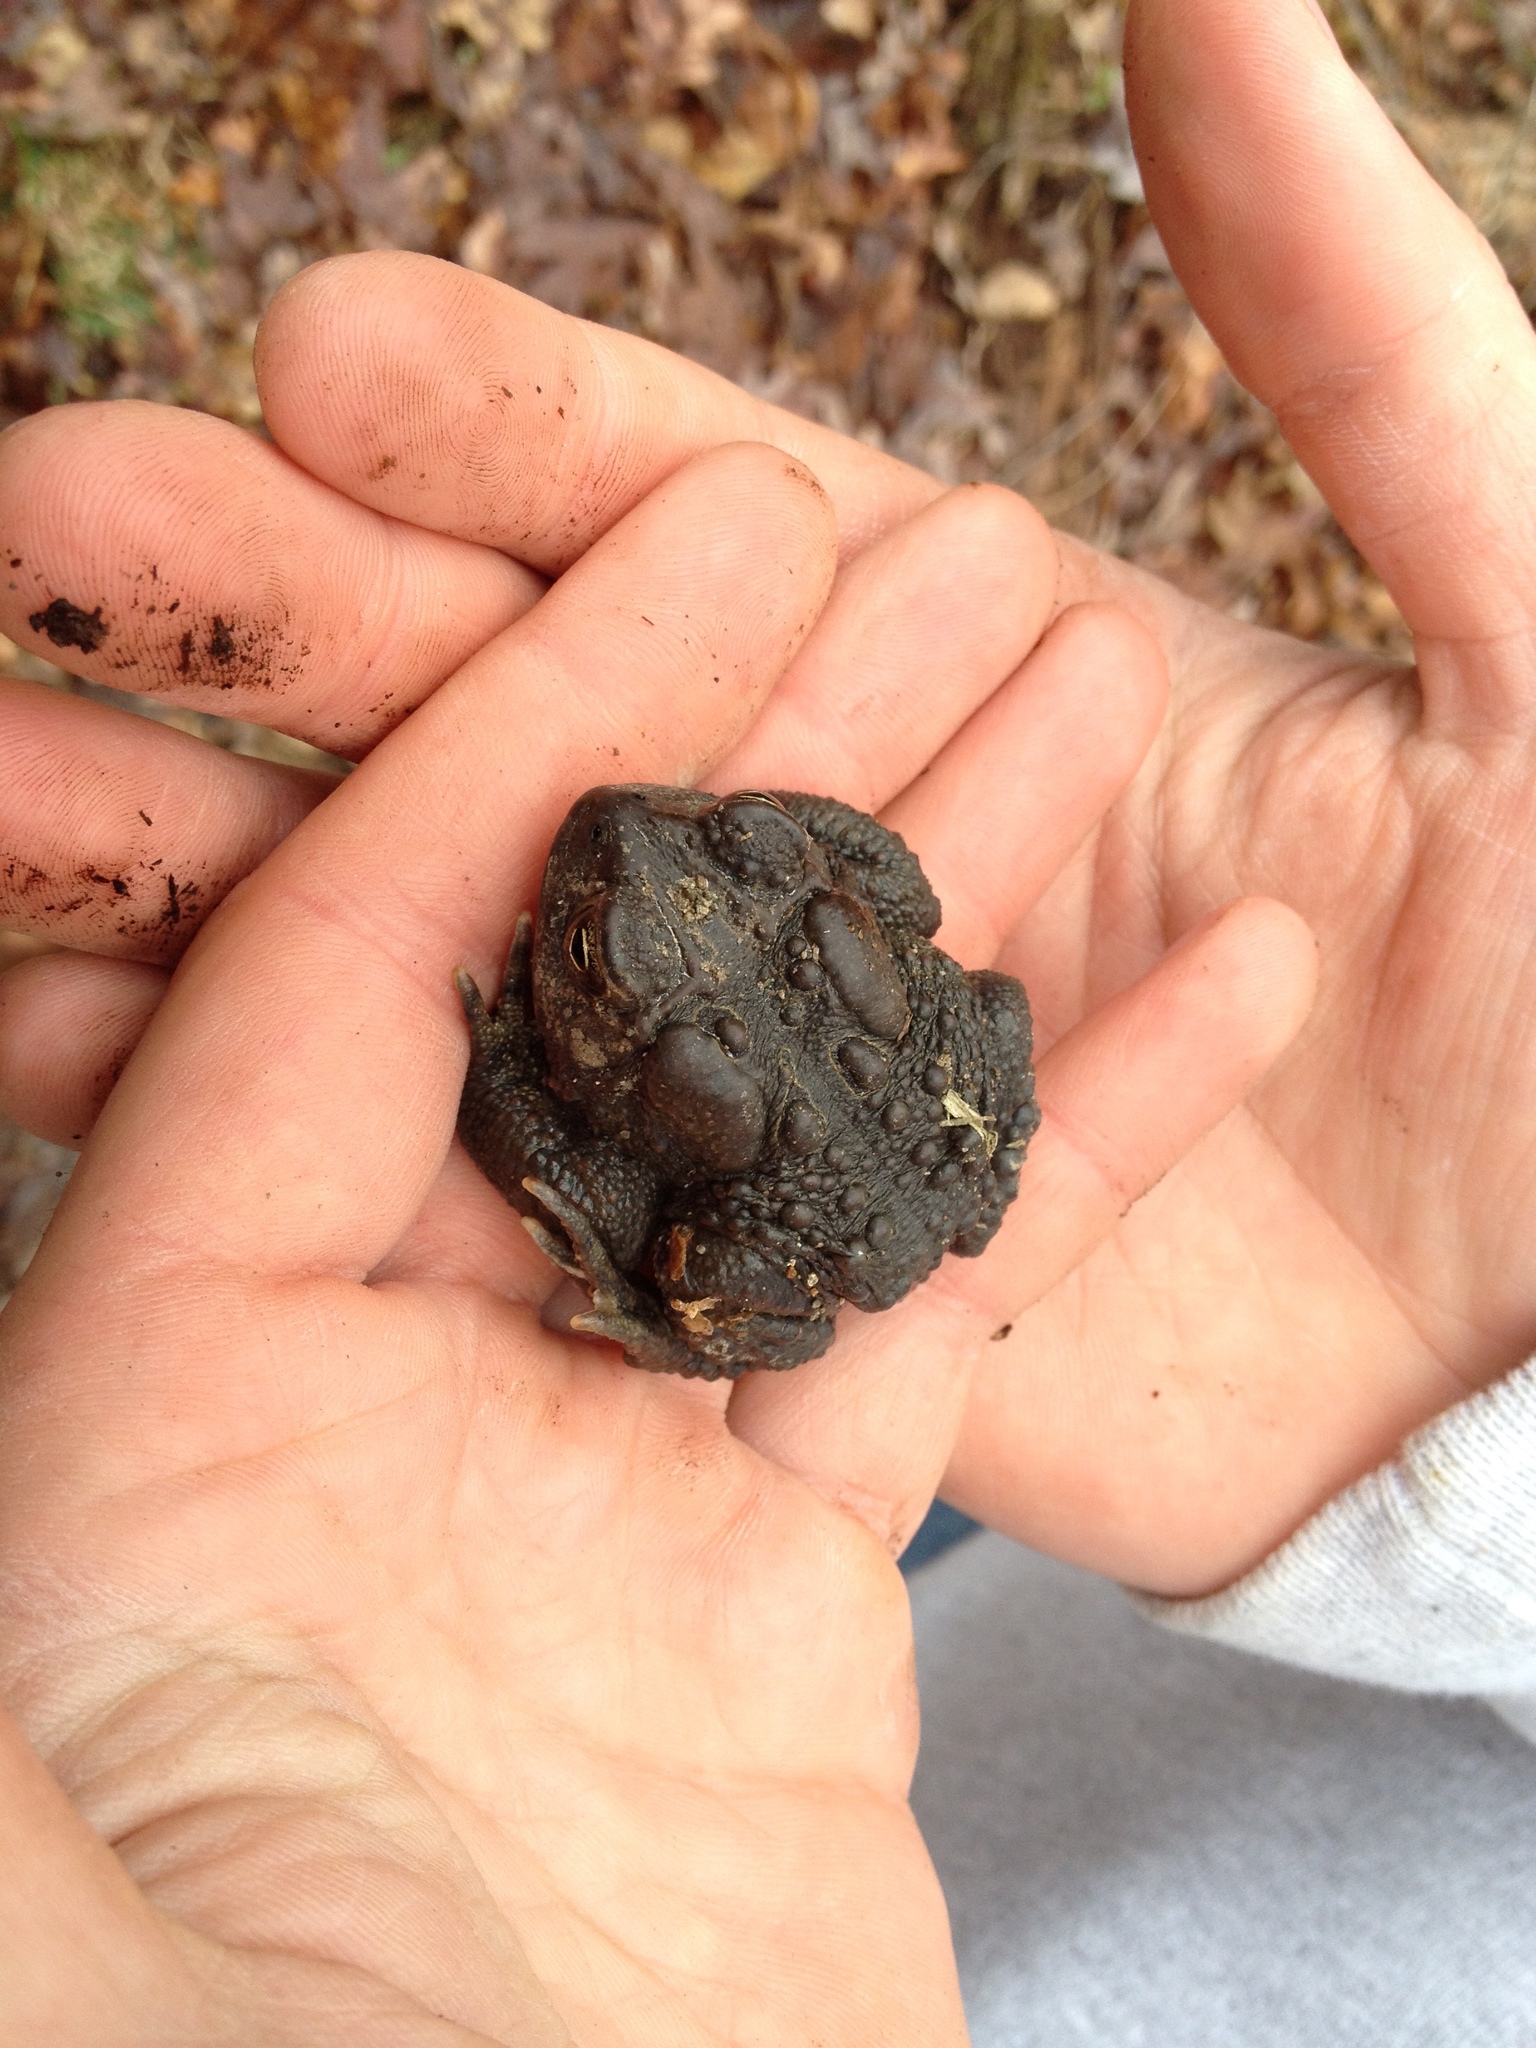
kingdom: Animalia
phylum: Chordata
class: Amphibia
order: Anura
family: Bufonidae
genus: Anaxyrus
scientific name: Anaxyrus americanus
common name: American toad
